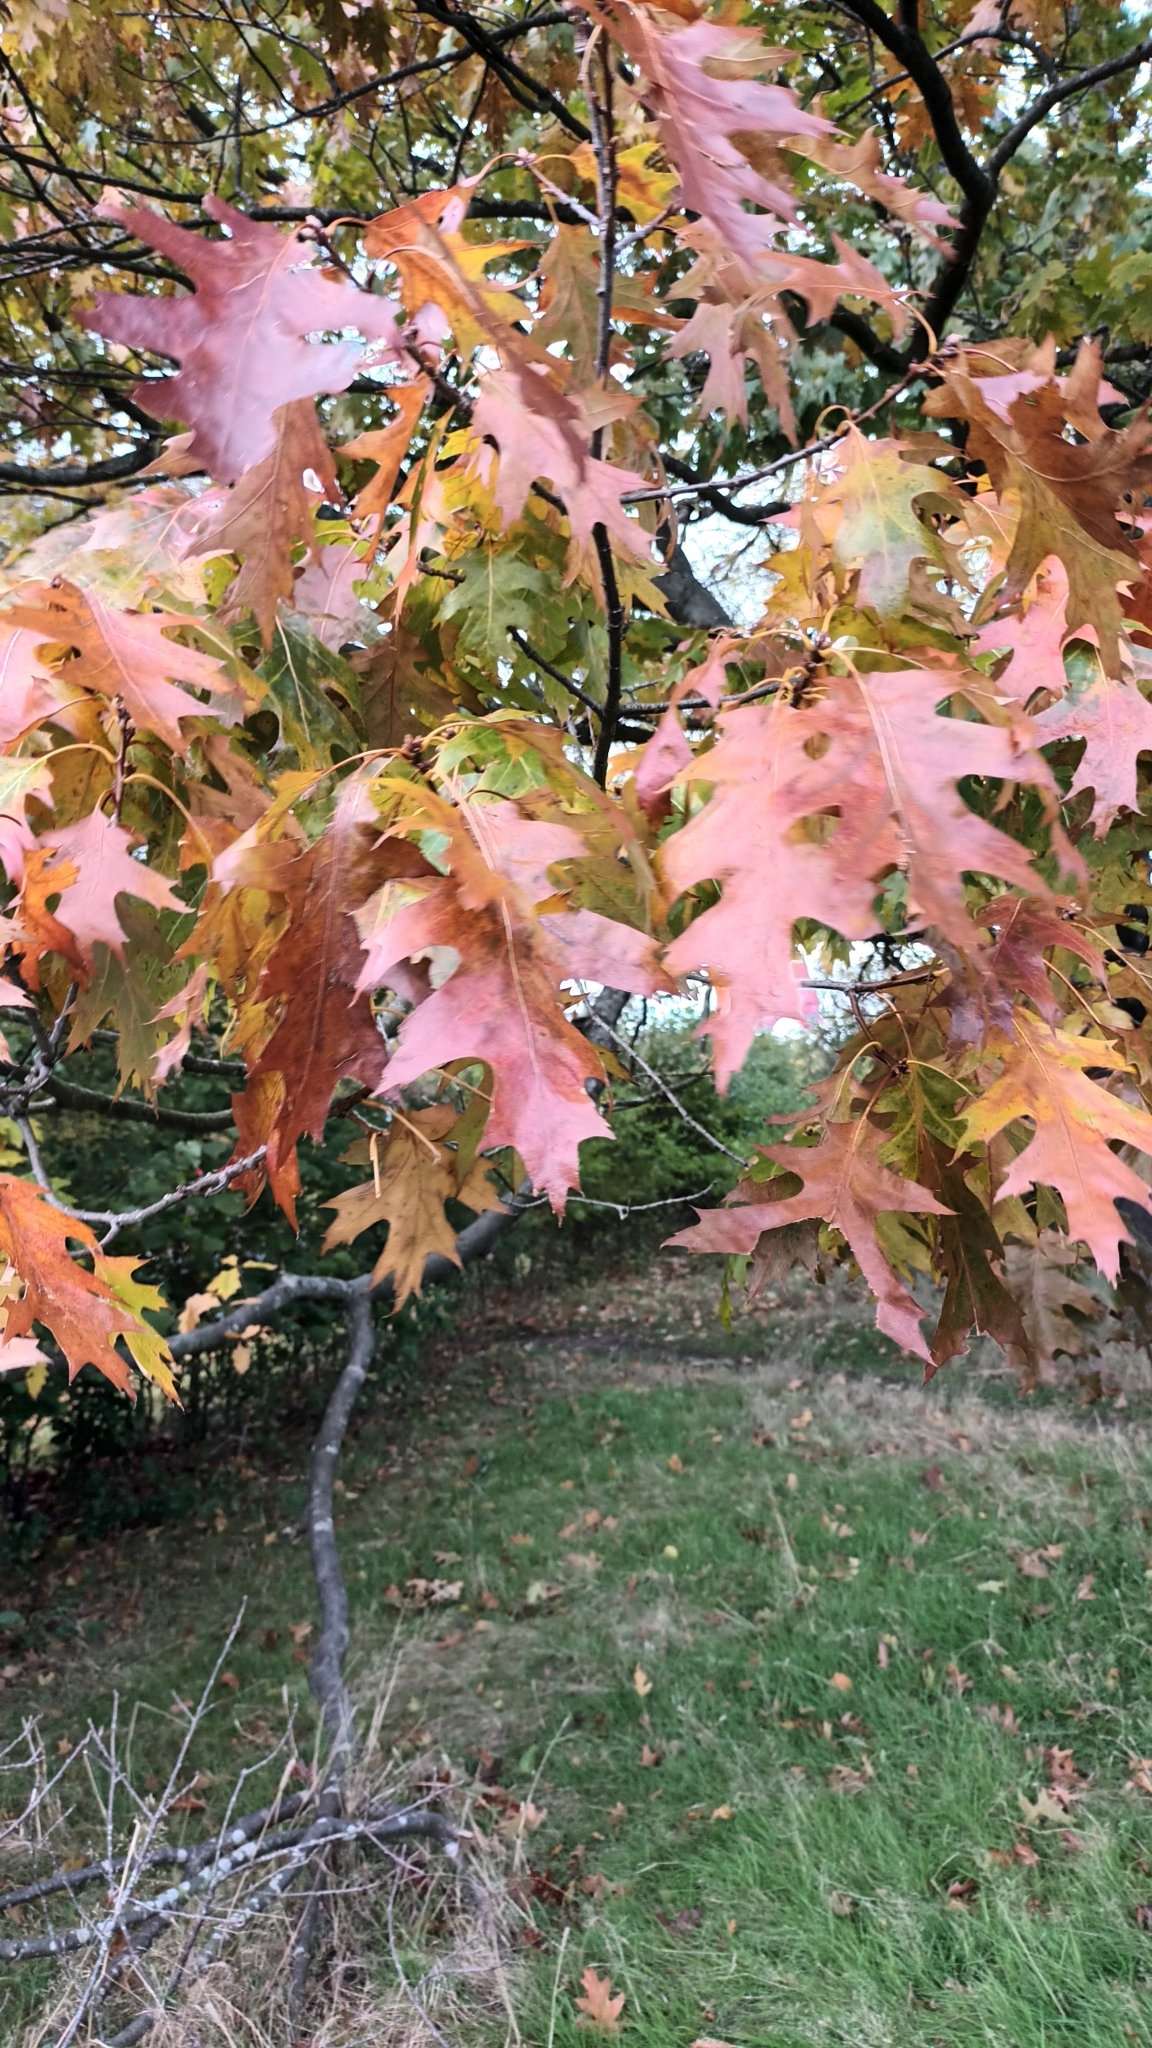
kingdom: Plantae
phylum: Tracheophyta
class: Magnoliopsida
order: Fagales
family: Fagaceae
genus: Quercus
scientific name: Quercus rubra
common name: Red oak
